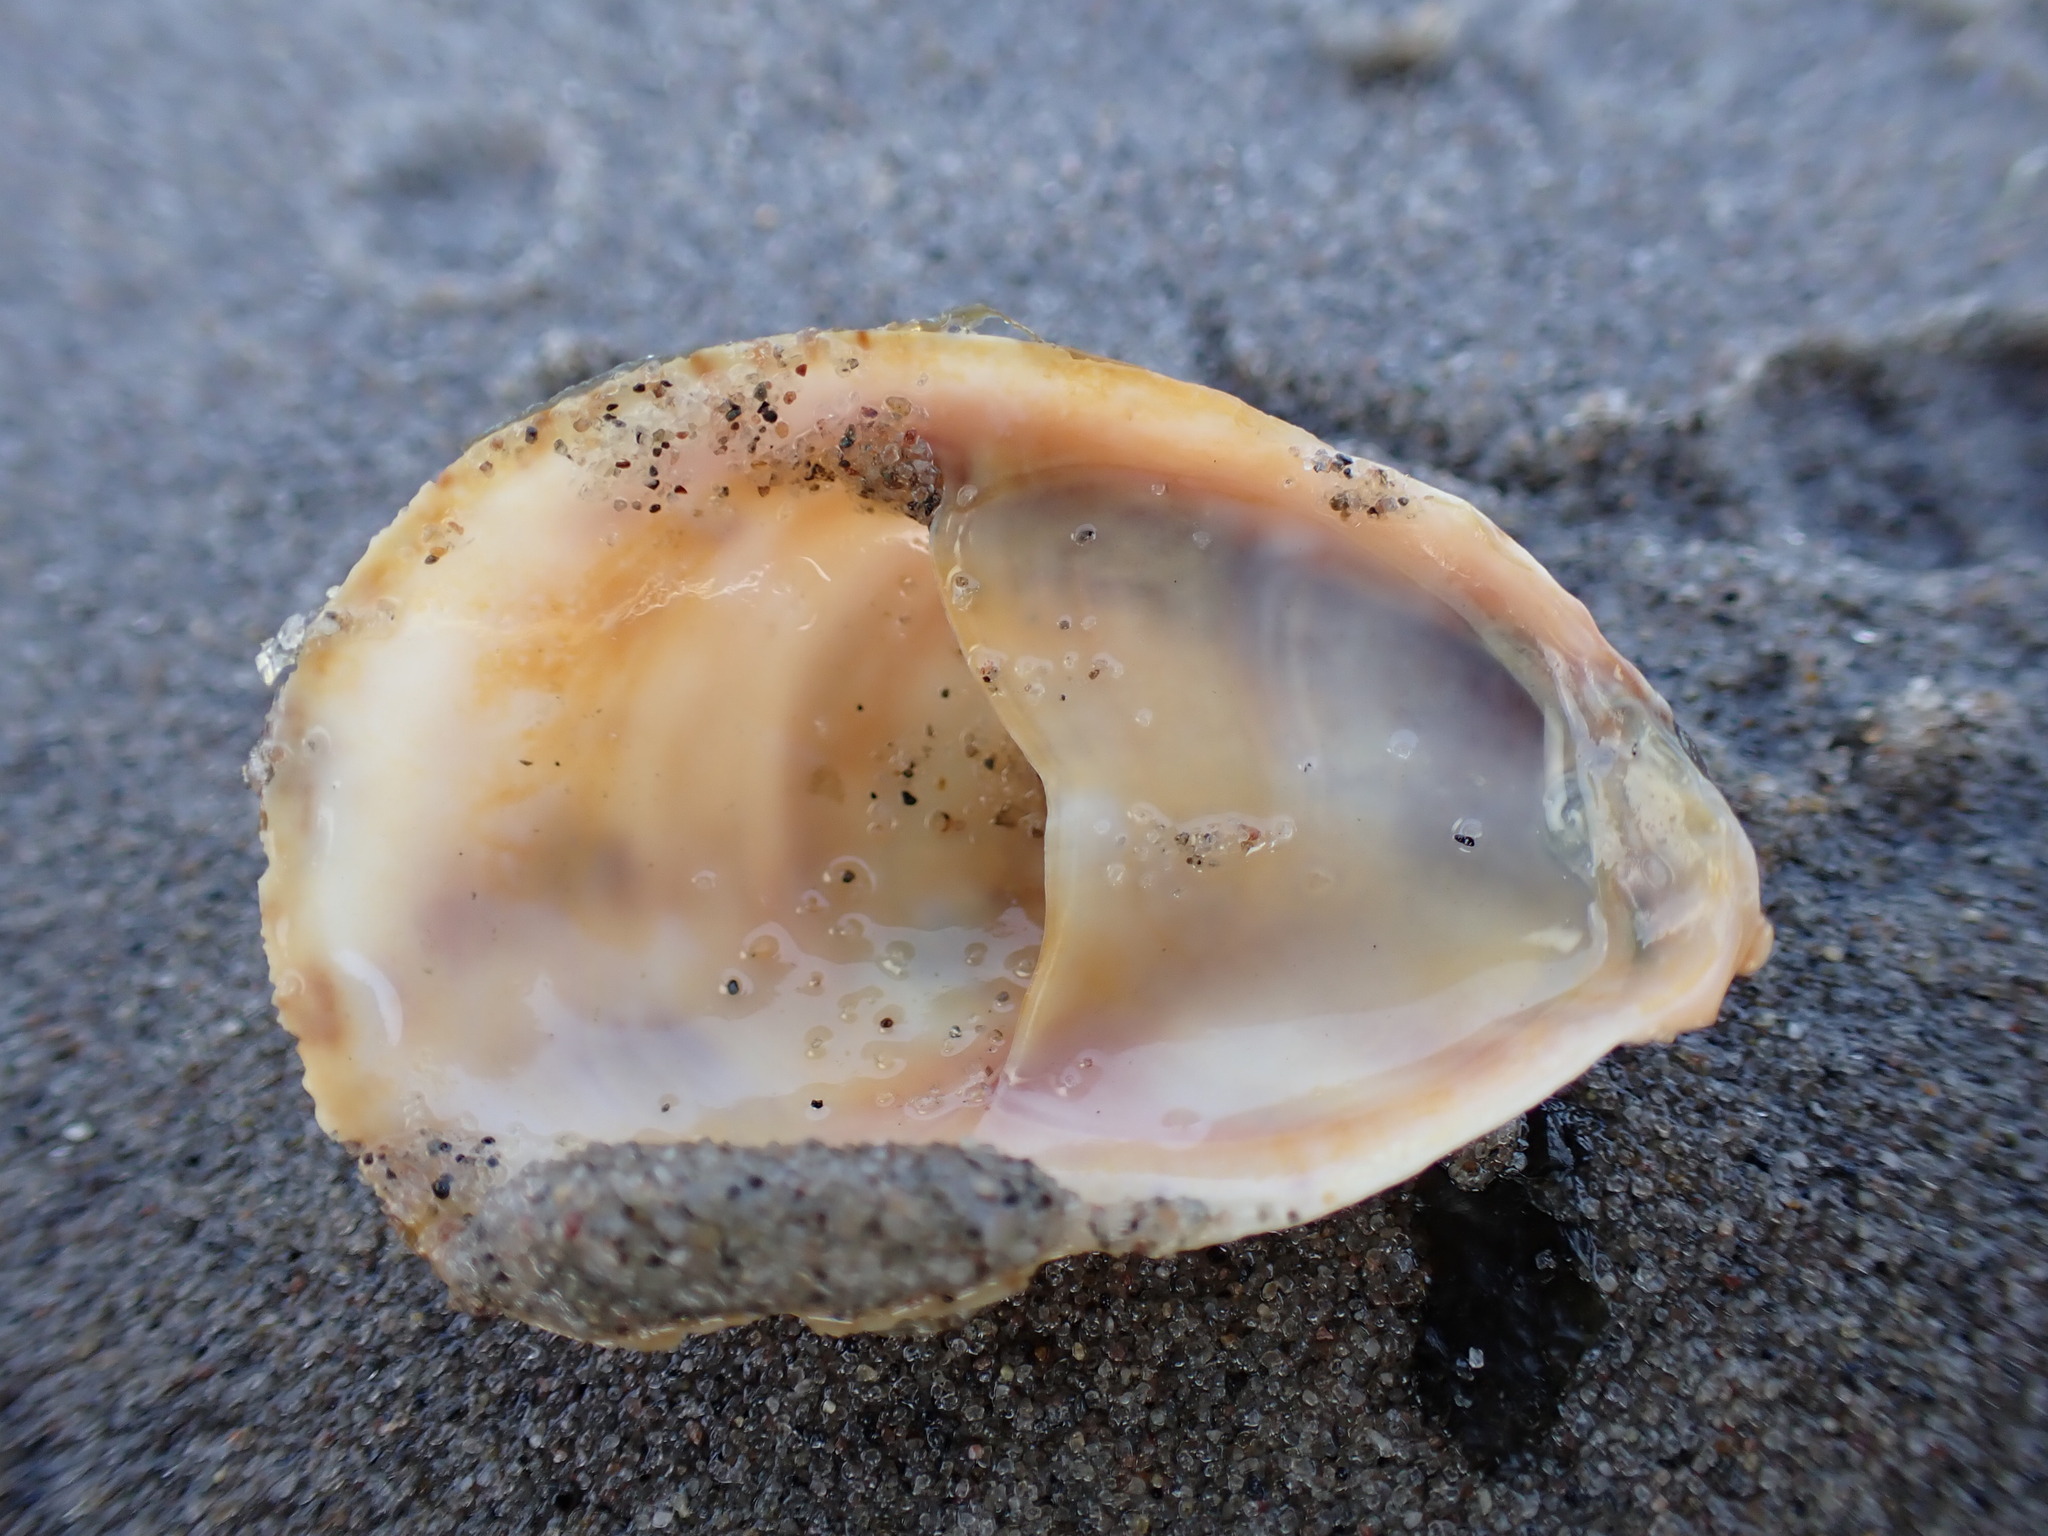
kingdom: Animalia
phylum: Mollusca
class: Gastropoda
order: Littorinimorpha
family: Calyptraeidae
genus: Crepidula
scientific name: Crepidula fornicata
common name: Slipper limpet
